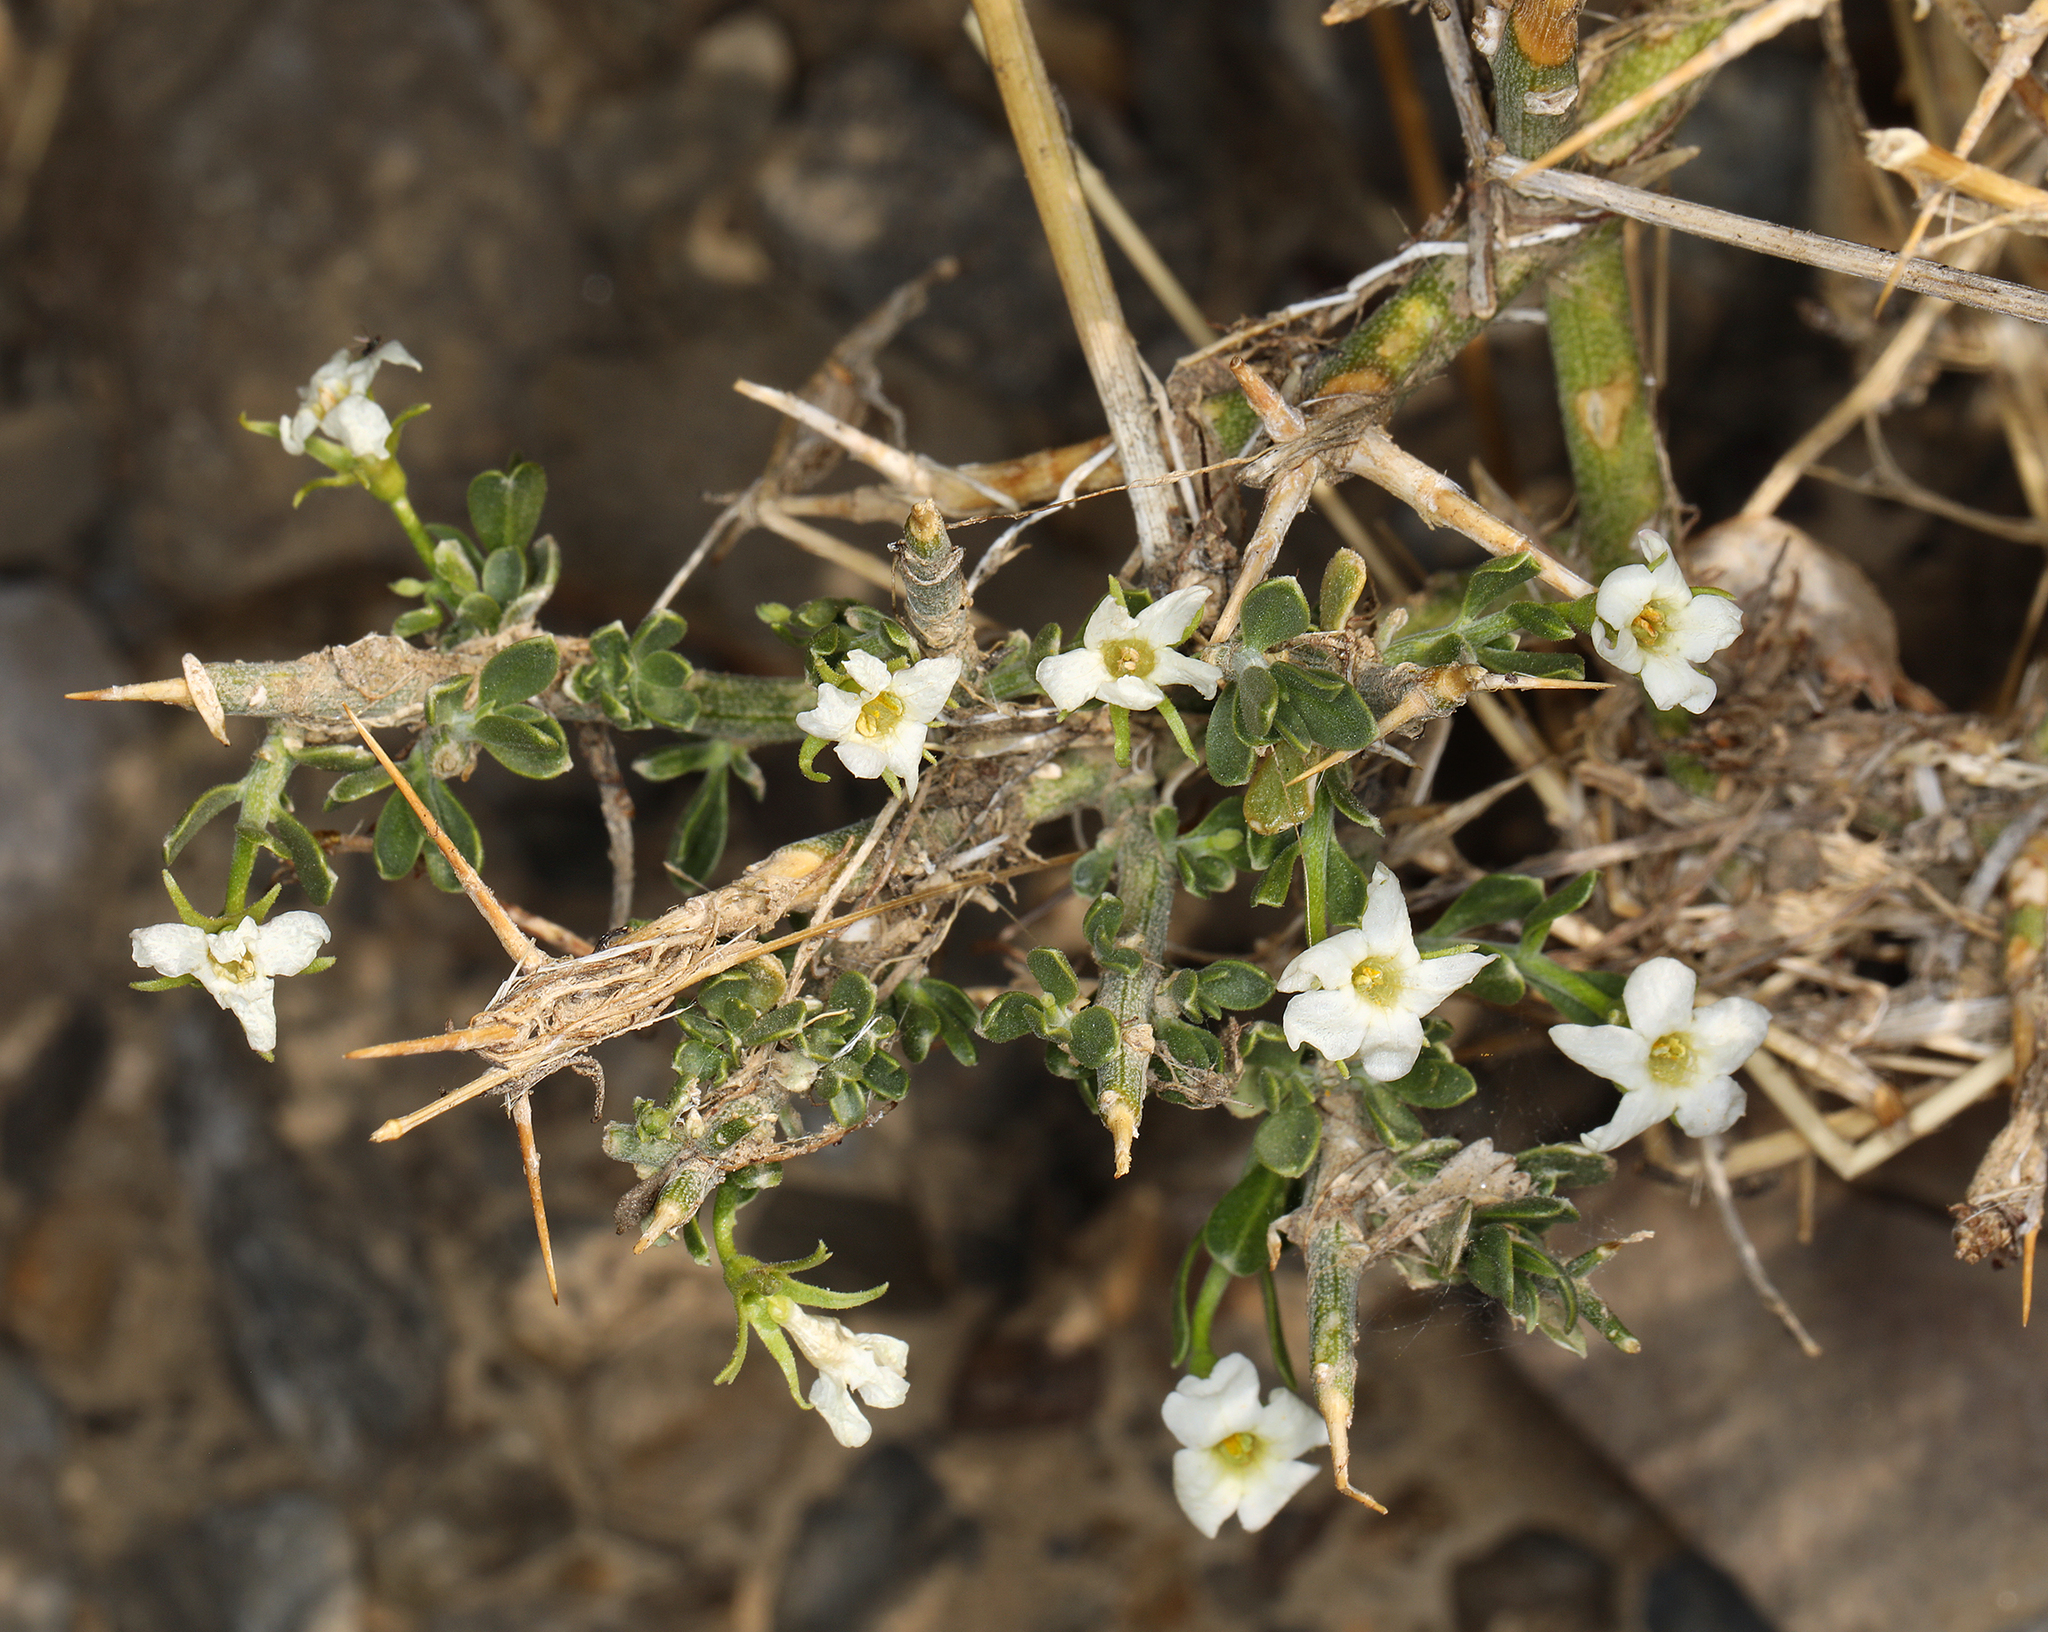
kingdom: Plantae
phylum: Tracheophyta
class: Magnoliopsida
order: Lamiales
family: Oleaceae
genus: Menodora
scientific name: Menodora spinescens
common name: Spiny menodora
